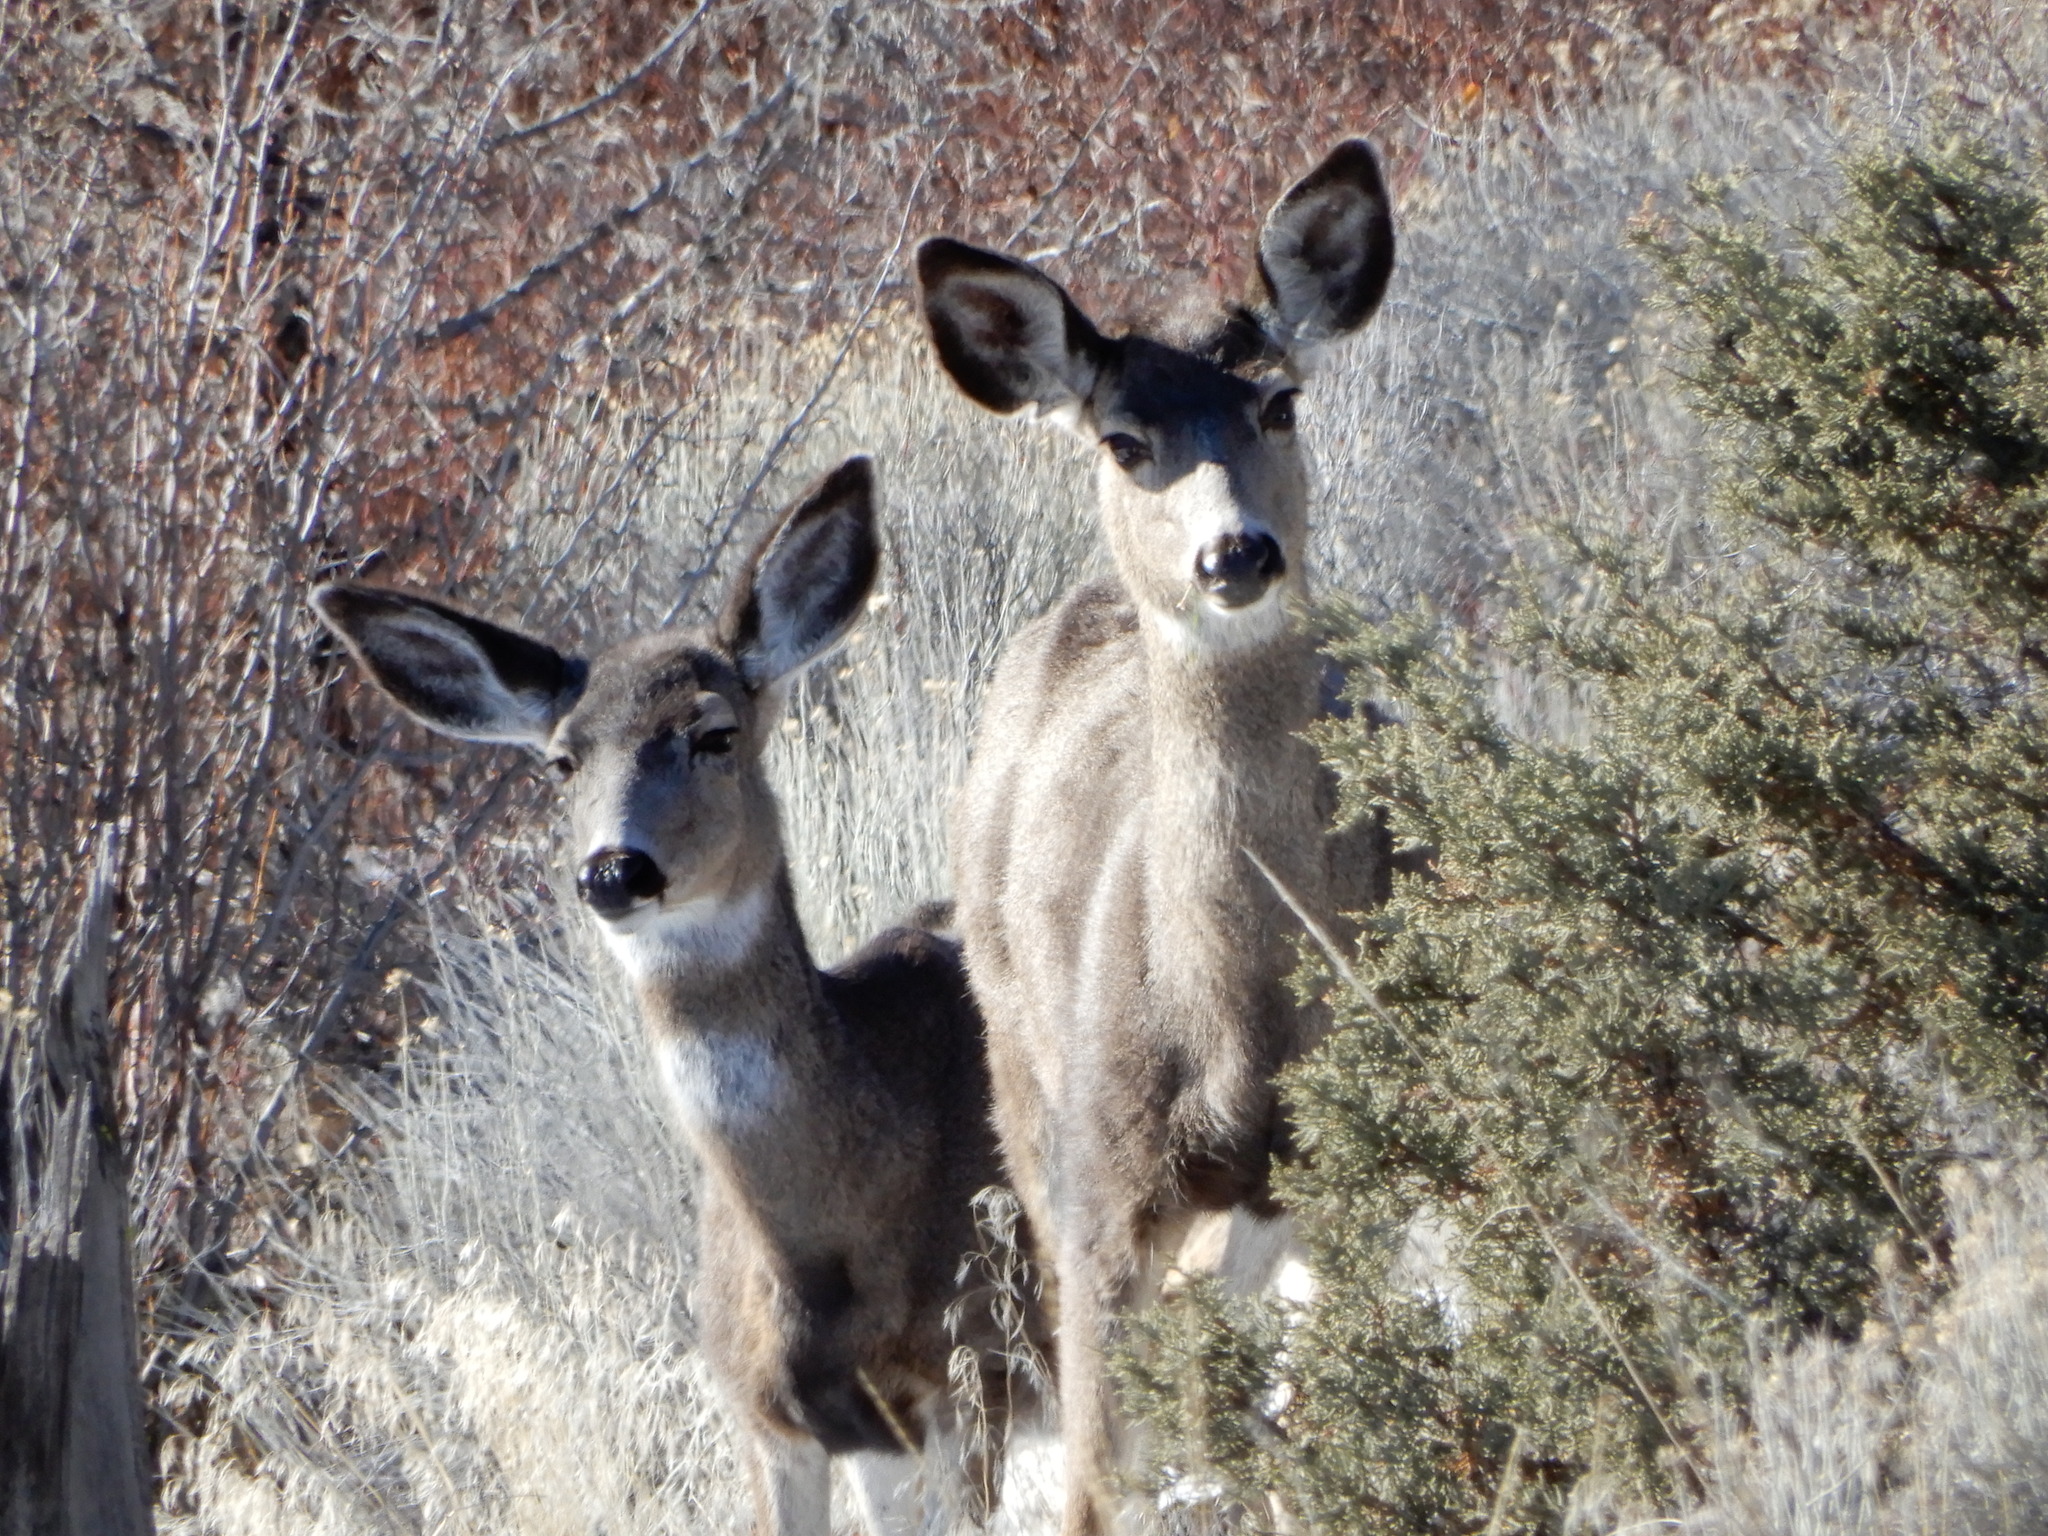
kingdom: Animalia
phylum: Chordata
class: Mammalia
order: Artiodactyla
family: Cervidae
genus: Odocoileus
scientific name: Odocoileus hemionus
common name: Mule deer
